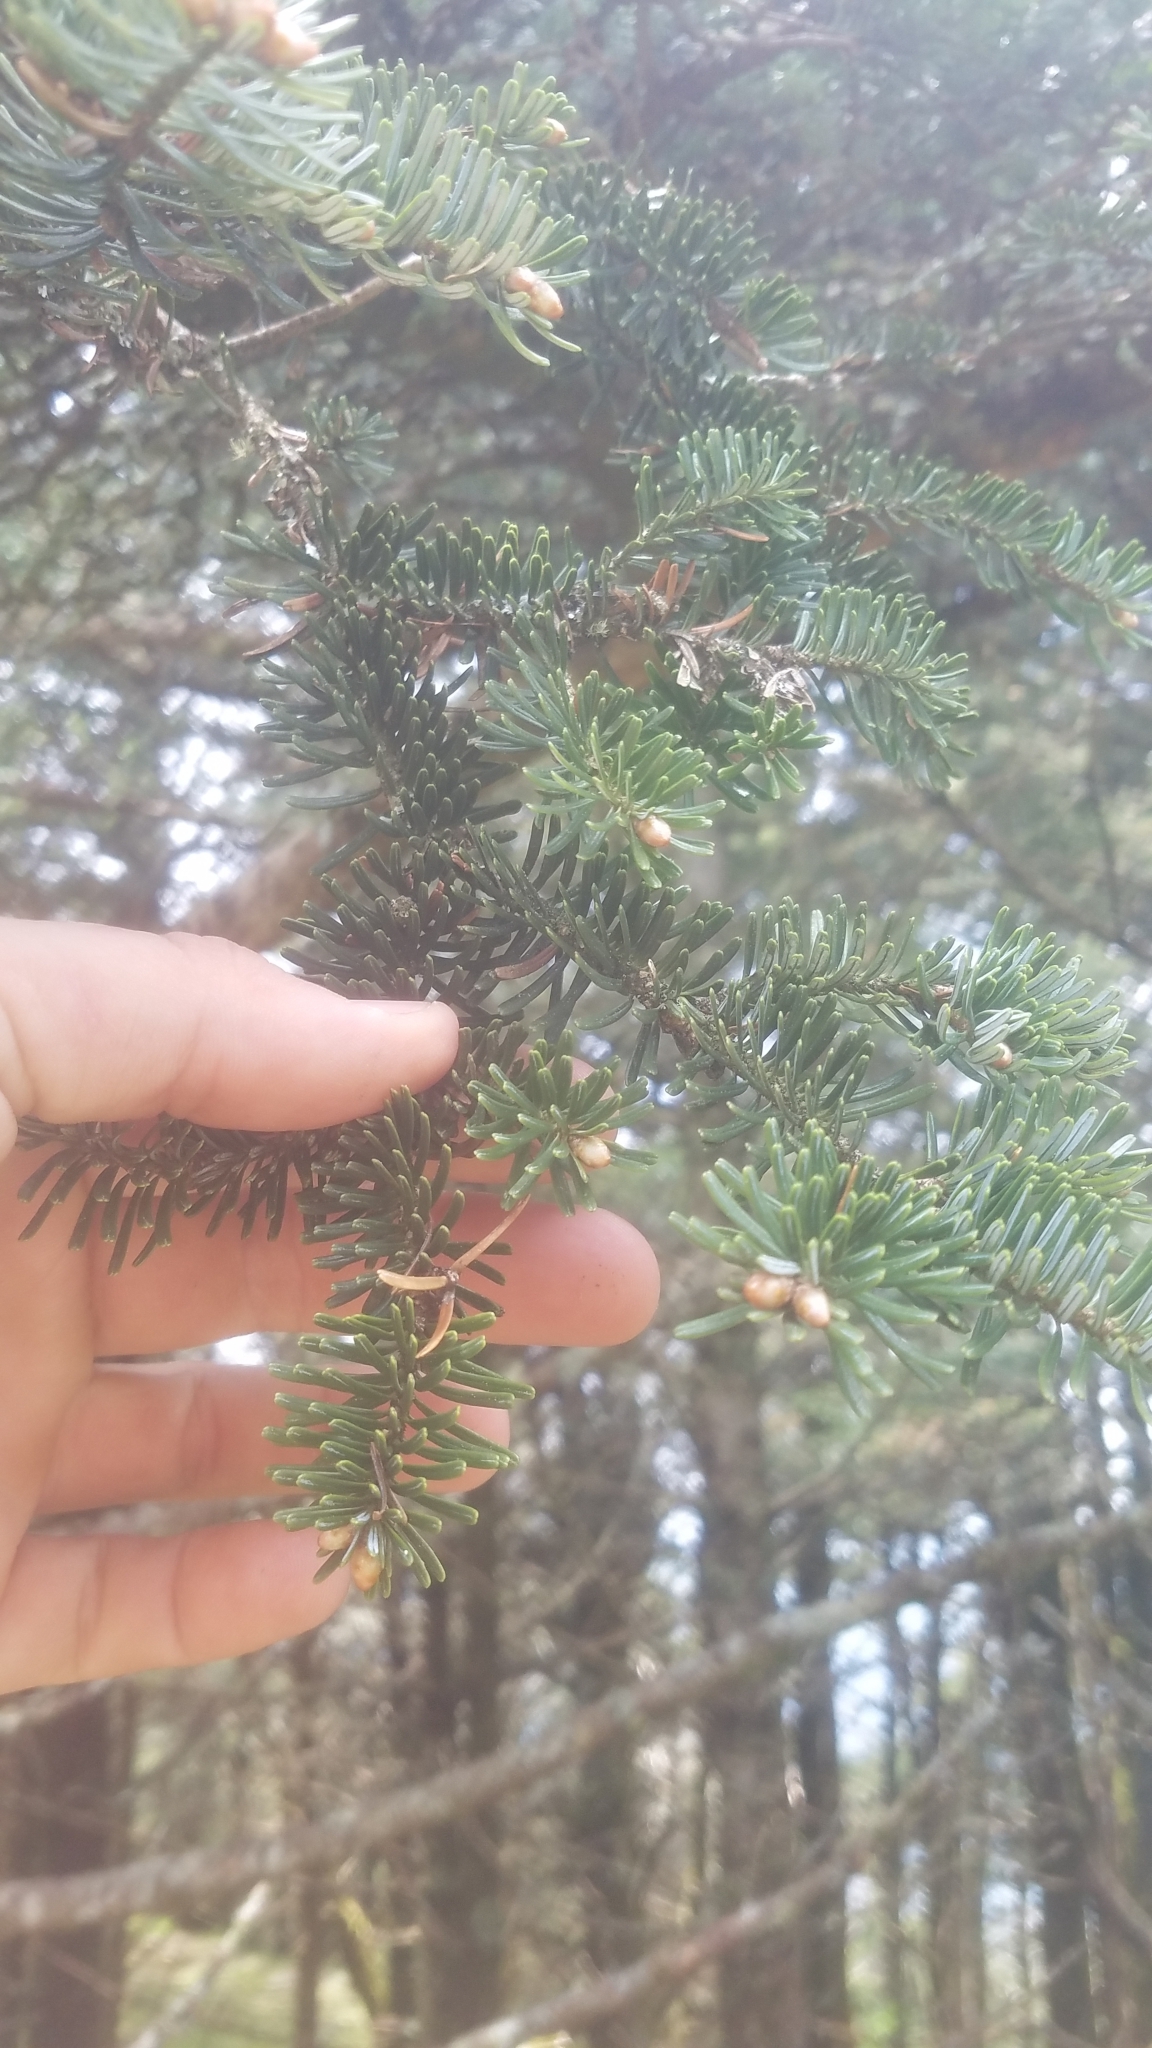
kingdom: Plantae
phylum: Tracheophyta
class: Pinopsida
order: Pinales
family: Pinaceae
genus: Abies
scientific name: Abies fraseri
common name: Fraser fir
